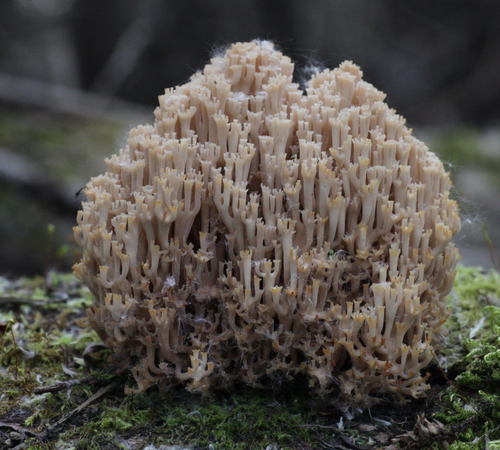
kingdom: Fungi
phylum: Basidiomycota
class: Agaricomycetes
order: Russulales
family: Auriscalpiaceae
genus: Artomyces
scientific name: Artomyces pyxidatus
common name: Crown-tipped coral fungus
